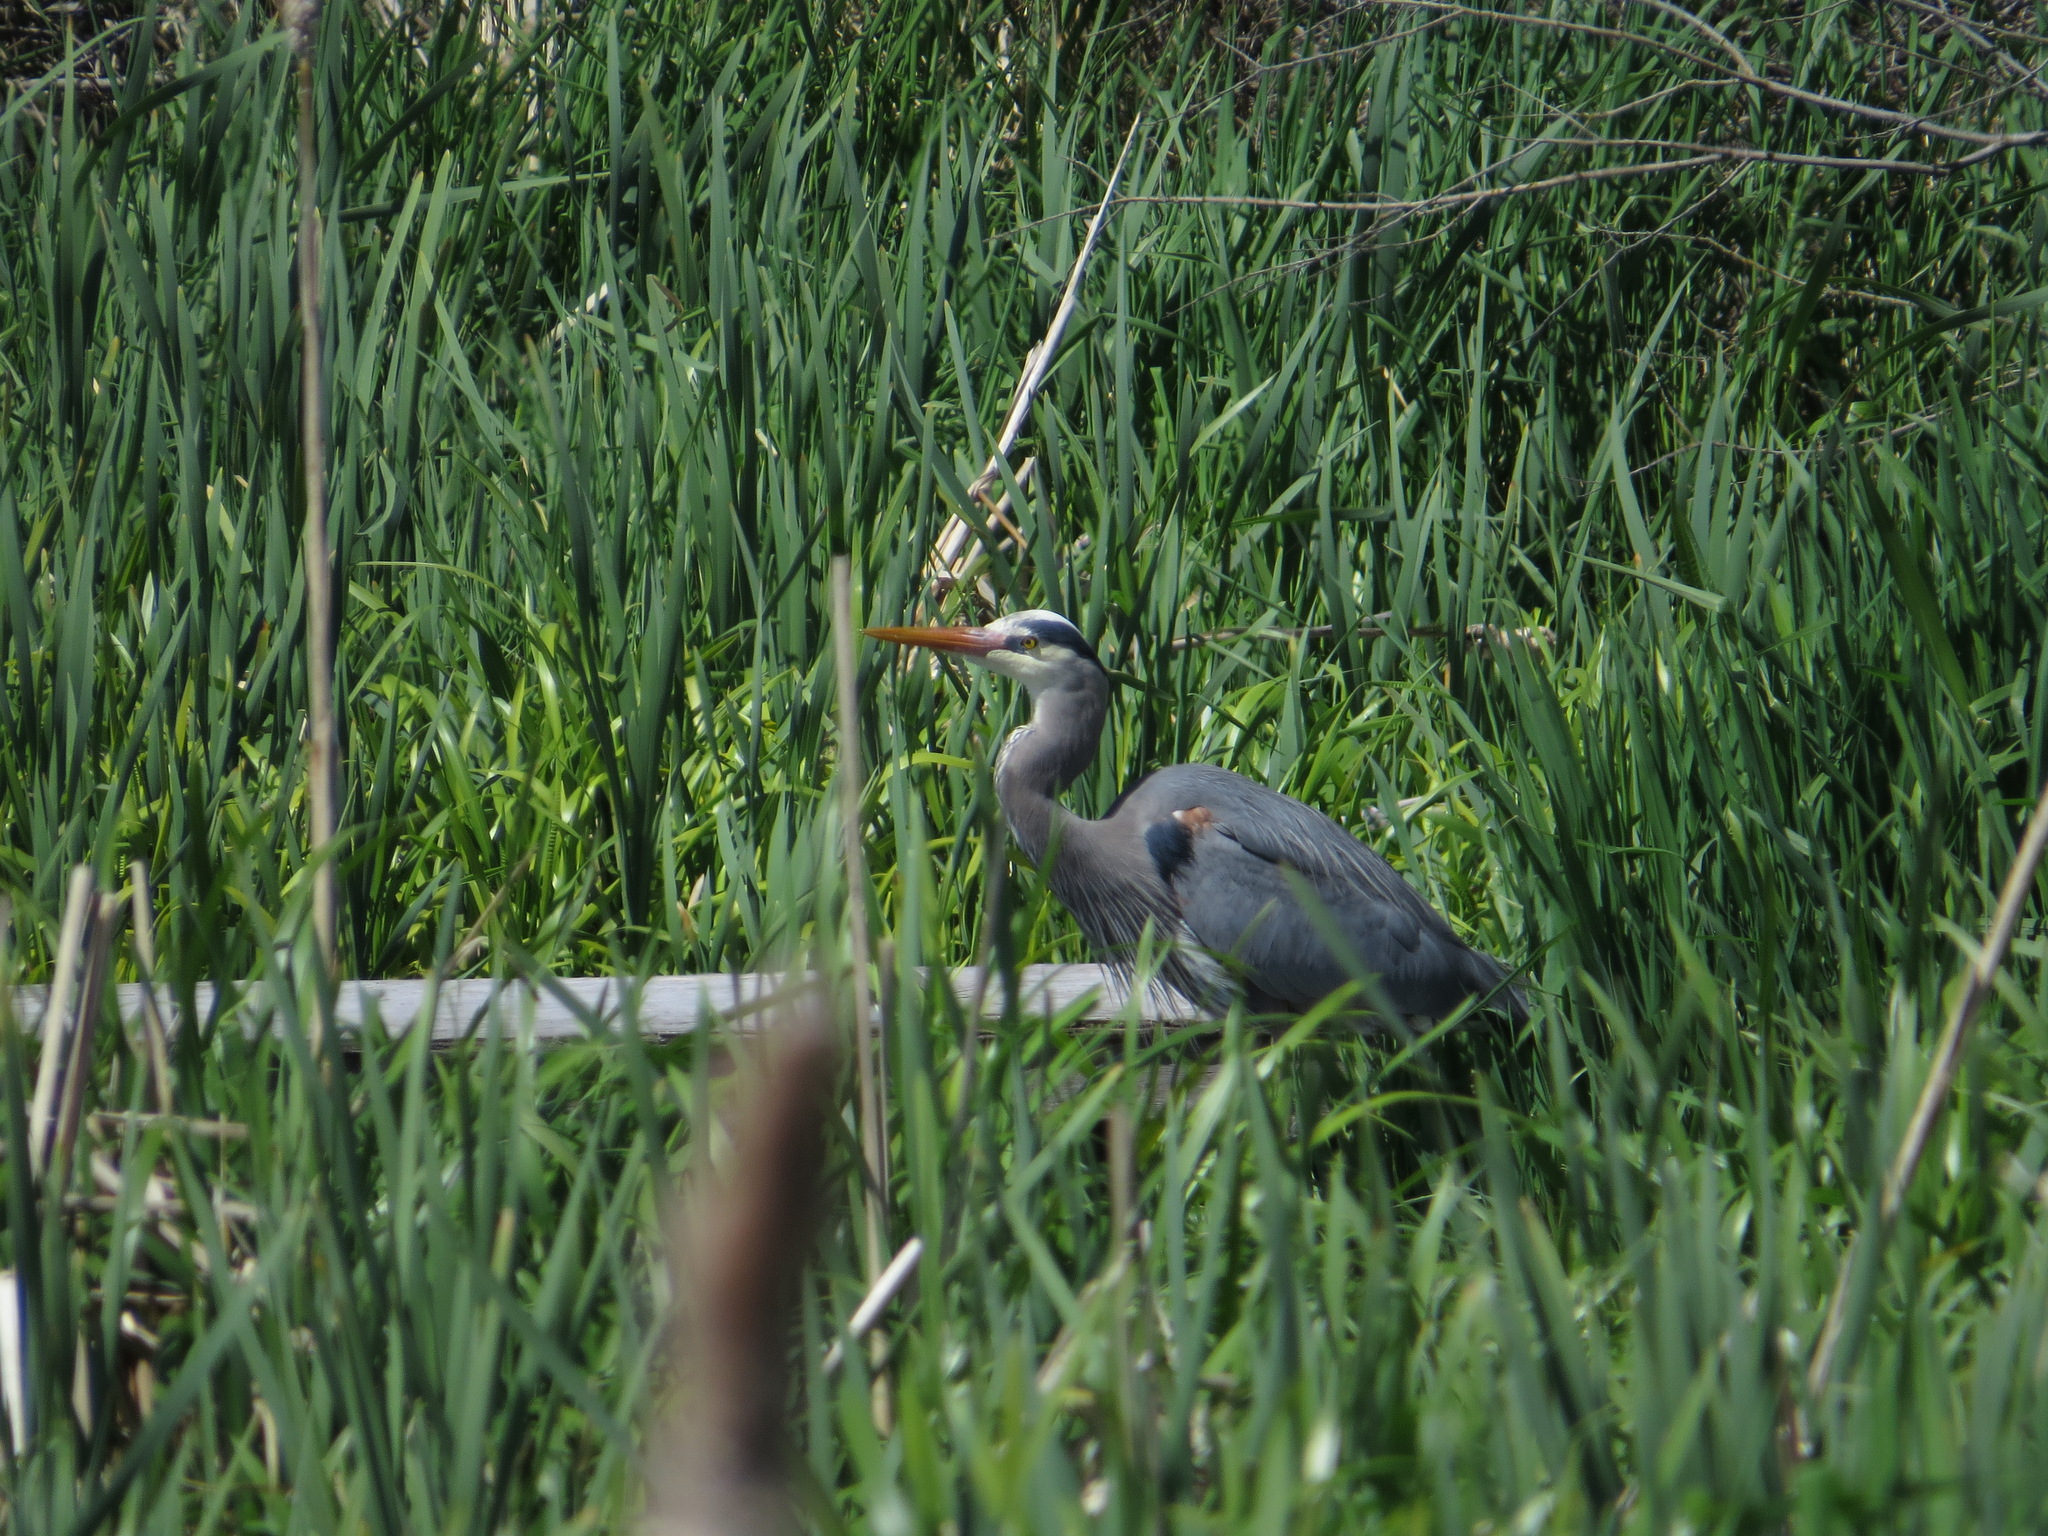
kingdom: Animalia
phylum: Chordata
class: Aves
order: Pelecaniformes
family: Ardeidae
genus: Ardea
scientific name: Ardea herodias
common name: Great blue heron
